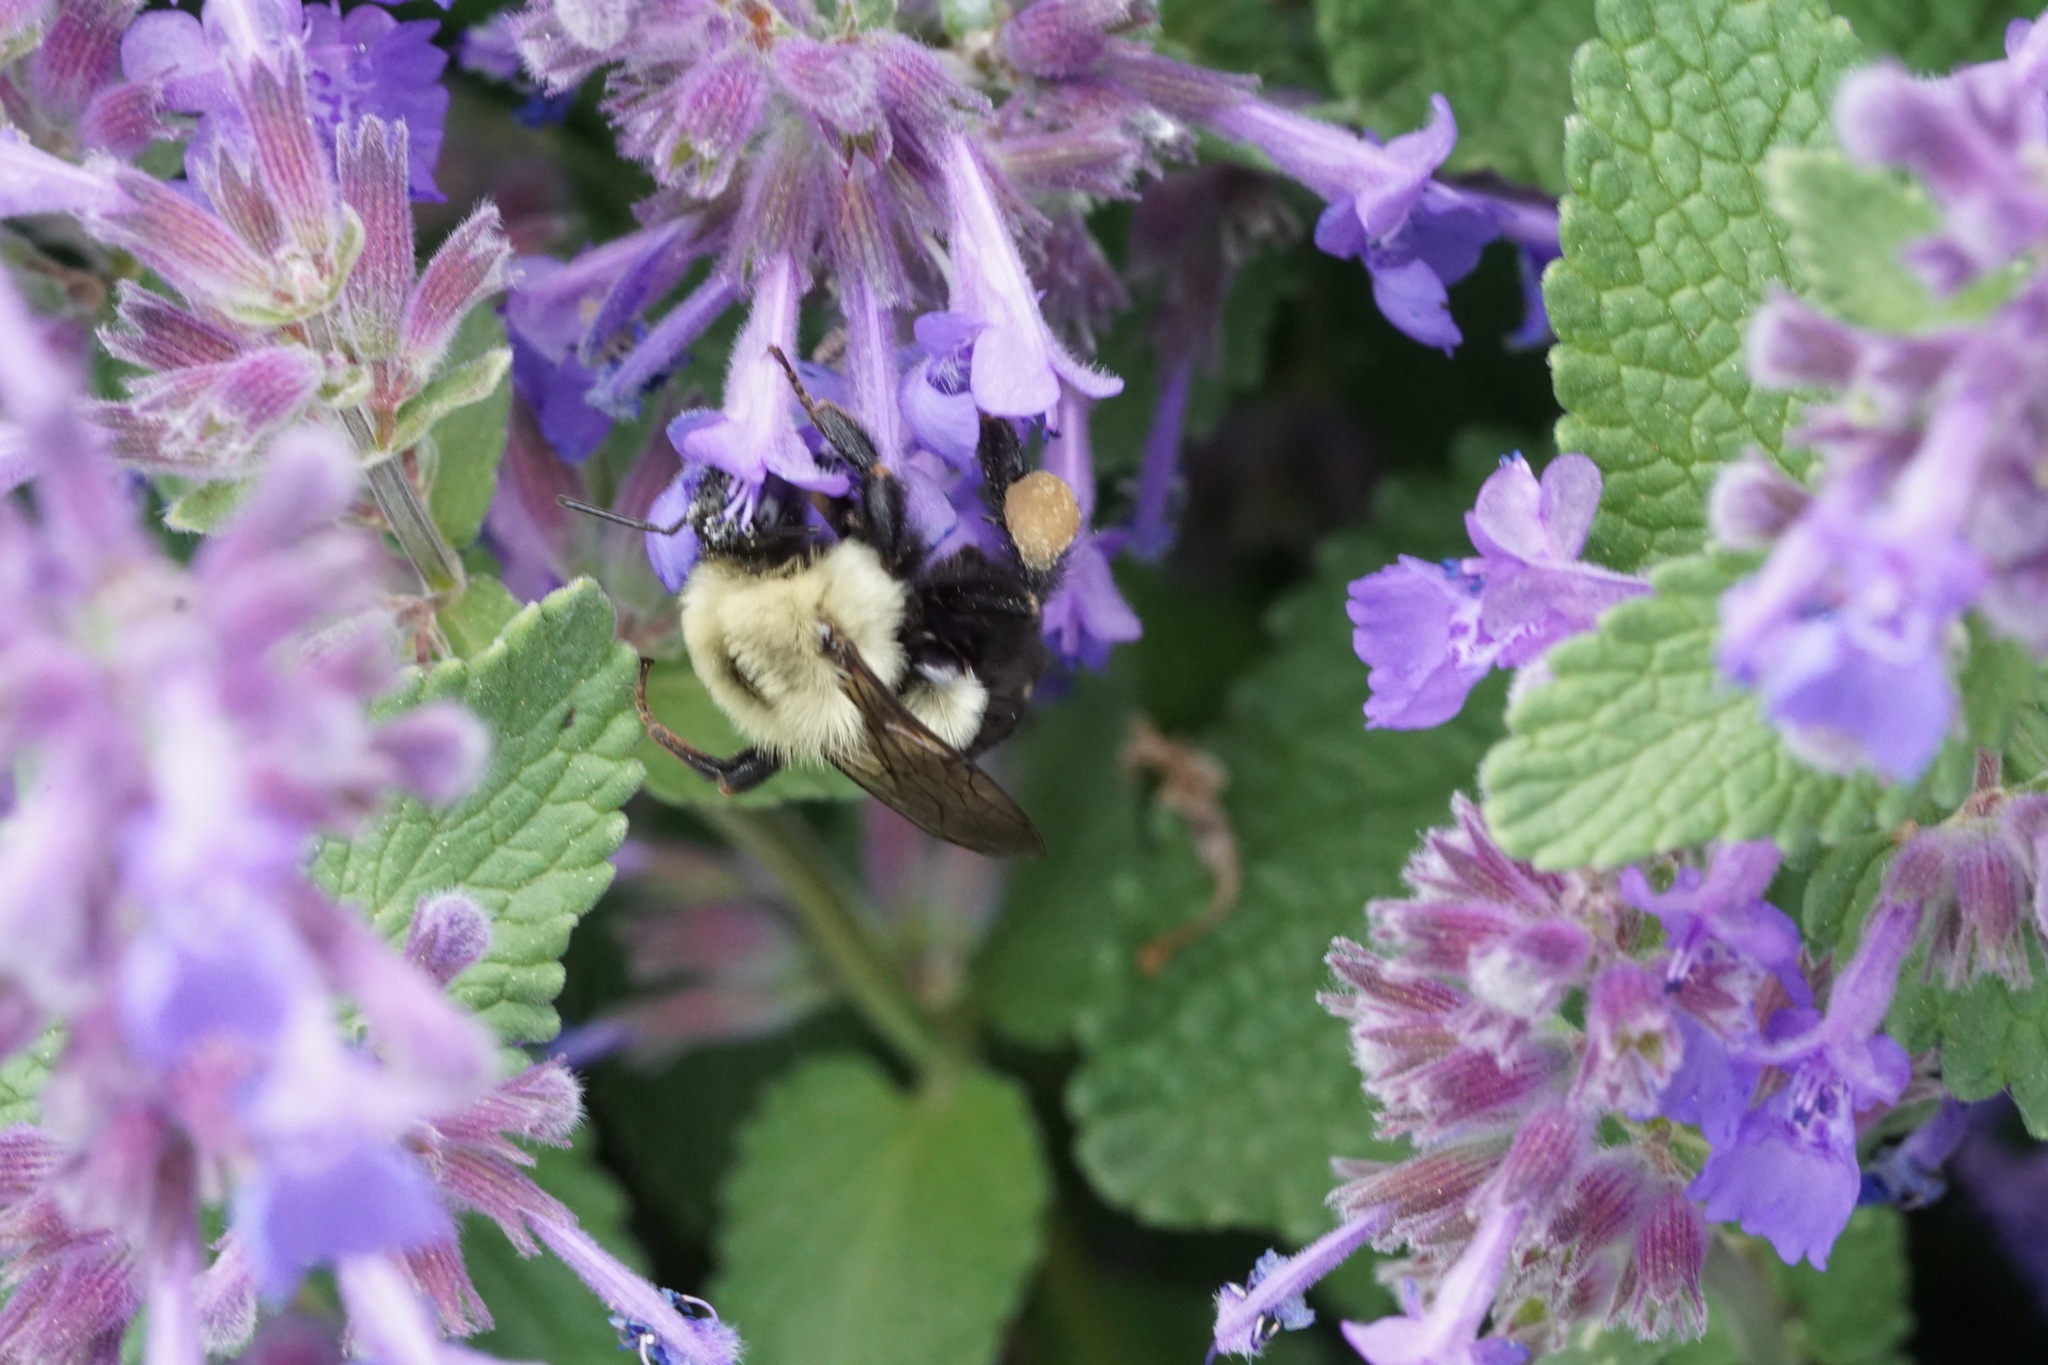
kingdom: Animalia
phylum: Arthropoda
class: Insecta
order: Hymenoptera
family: Apidae
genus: Bombus
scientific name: Bombus impatiens
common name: Common eastern bumble bee
